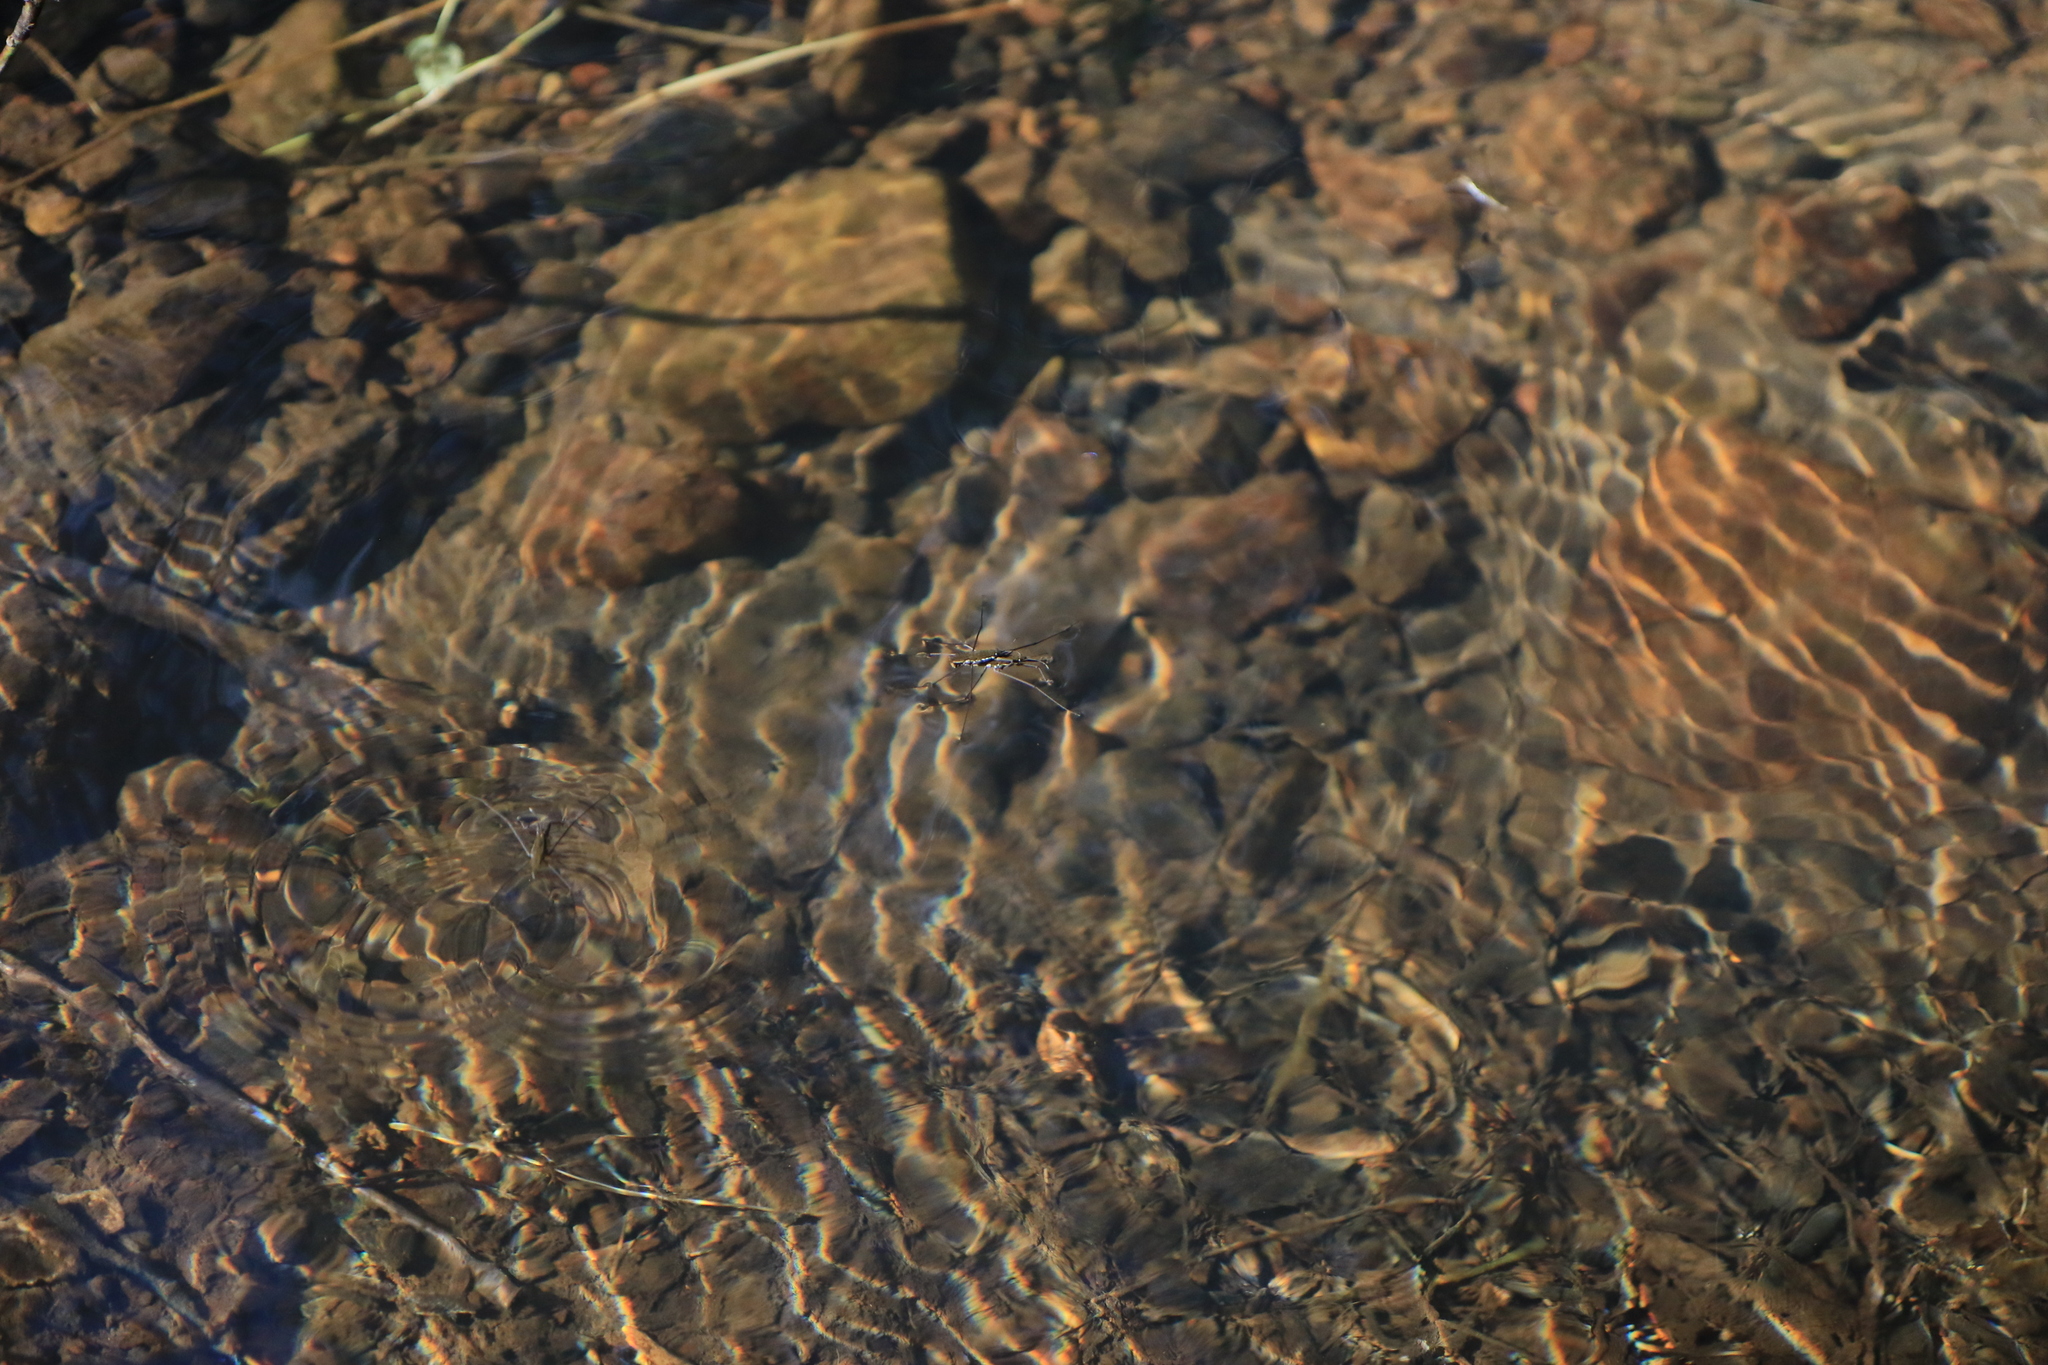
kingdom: Animalia
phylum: Arthropoda
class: Insecta
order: Hemiptera
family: Gerridae
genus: Aquarius
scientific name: Aquarius remigis
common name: Common water strider
